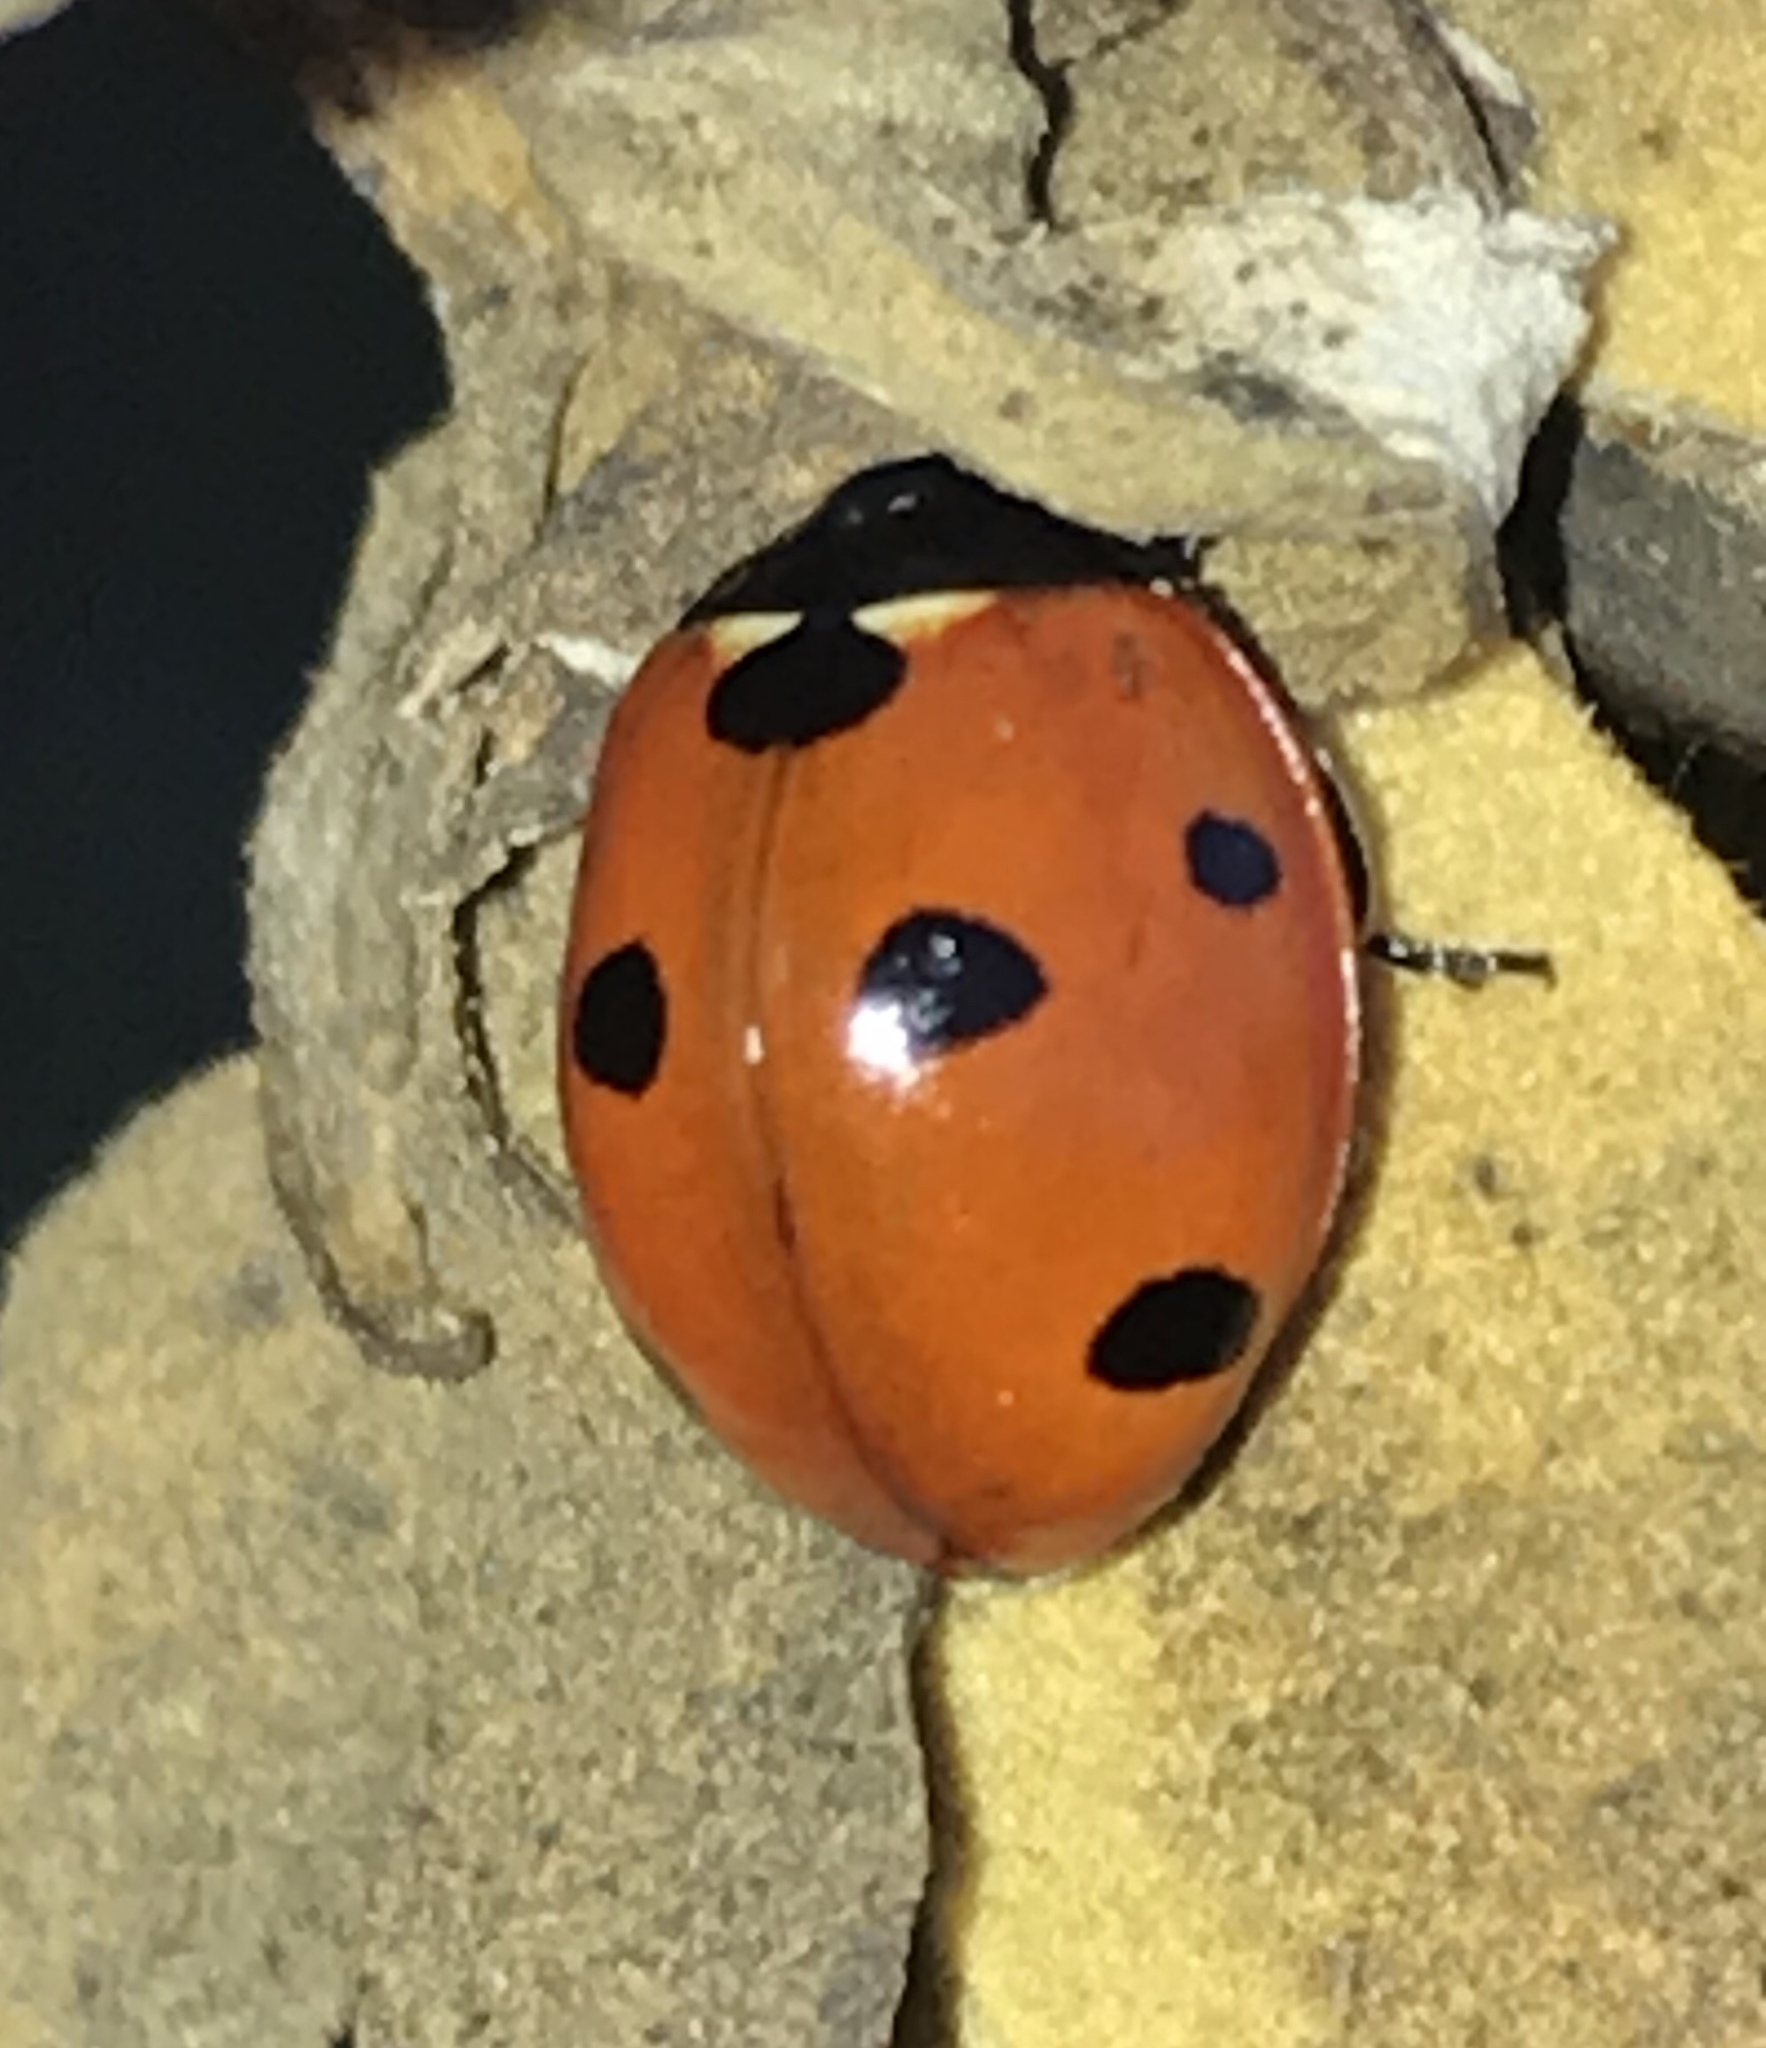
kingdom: Animalia
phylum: Arthropoda
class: Insecta
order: Coleoptera
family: Coccinellidae
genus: Coccinella
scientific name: Coccinella septempunctata
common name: Sevenspotted lady beetle
